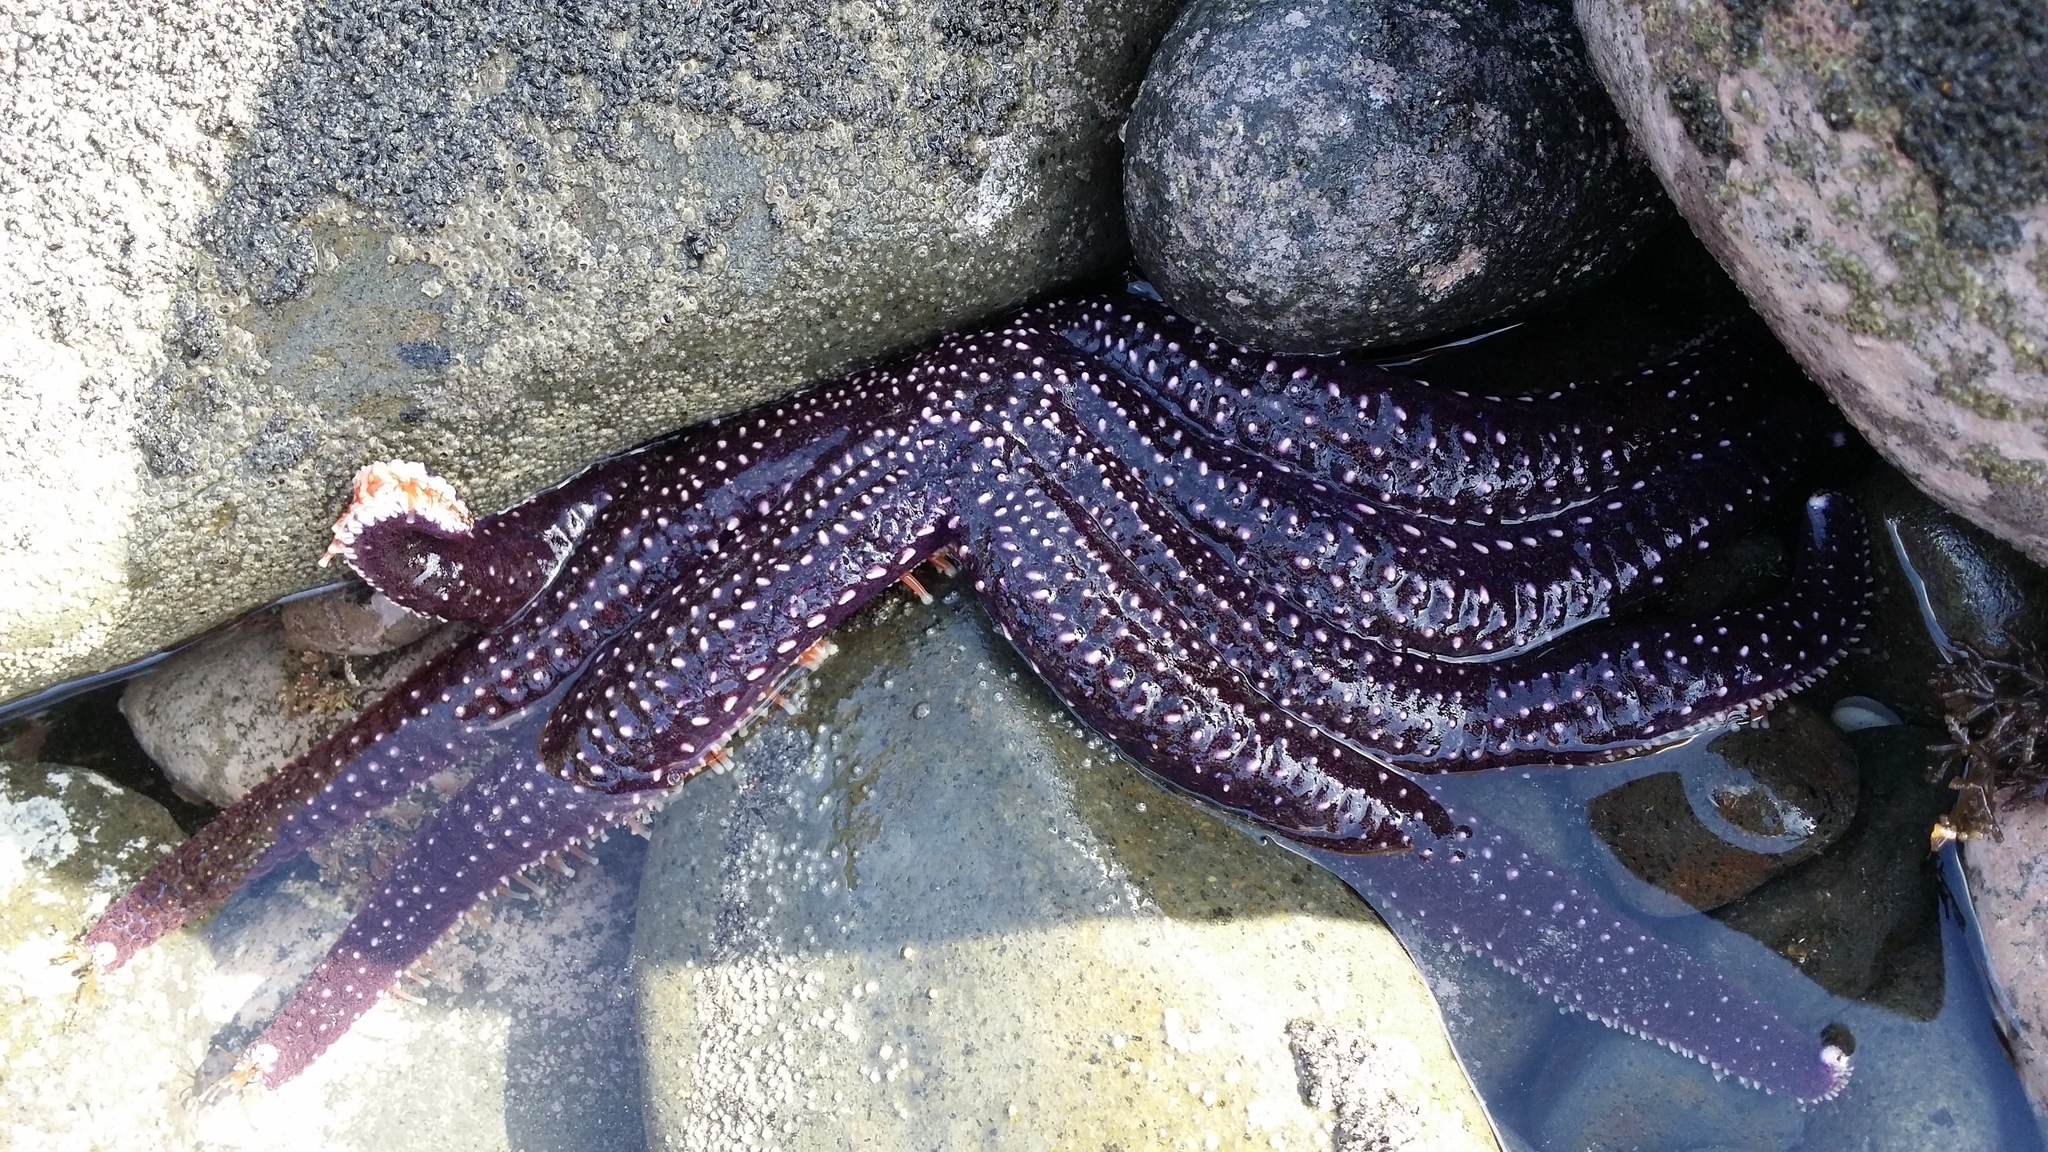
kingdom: Animalia
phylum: Echinodermata
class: Asteroidea
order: Forcipulatida
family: Asteriidae
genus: Astrostole
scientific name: Astrostole scabra
